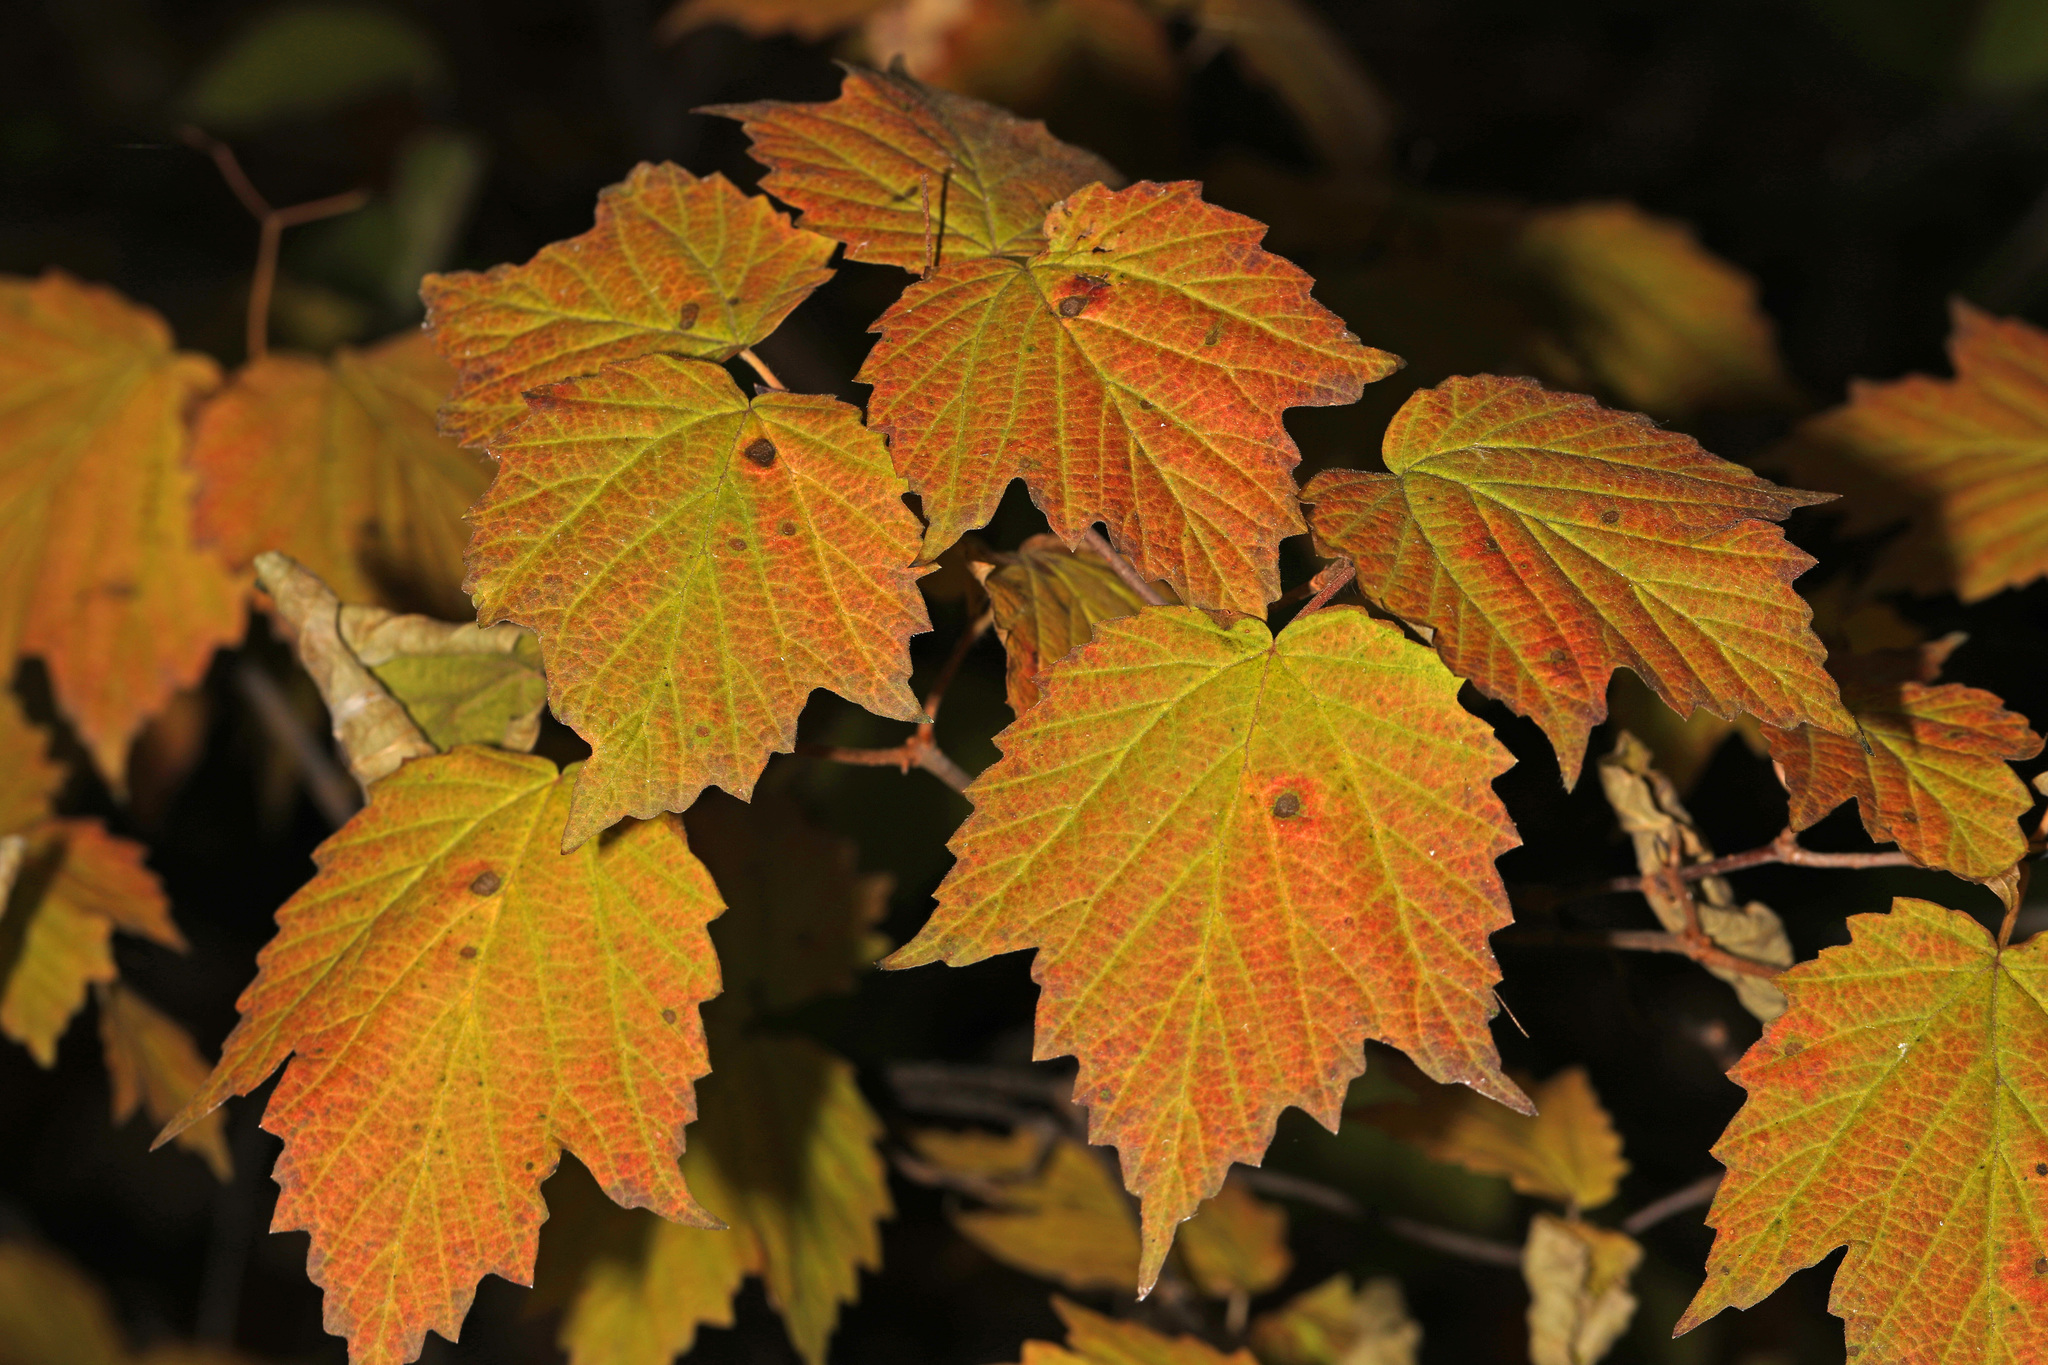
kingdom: Plantae
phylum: Tracheophyta
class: Magnoliopsida
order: Dipsacales
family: Viburnaceae
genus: Viburnum
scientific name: Viburnum acerifolium
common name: Dockmackie
